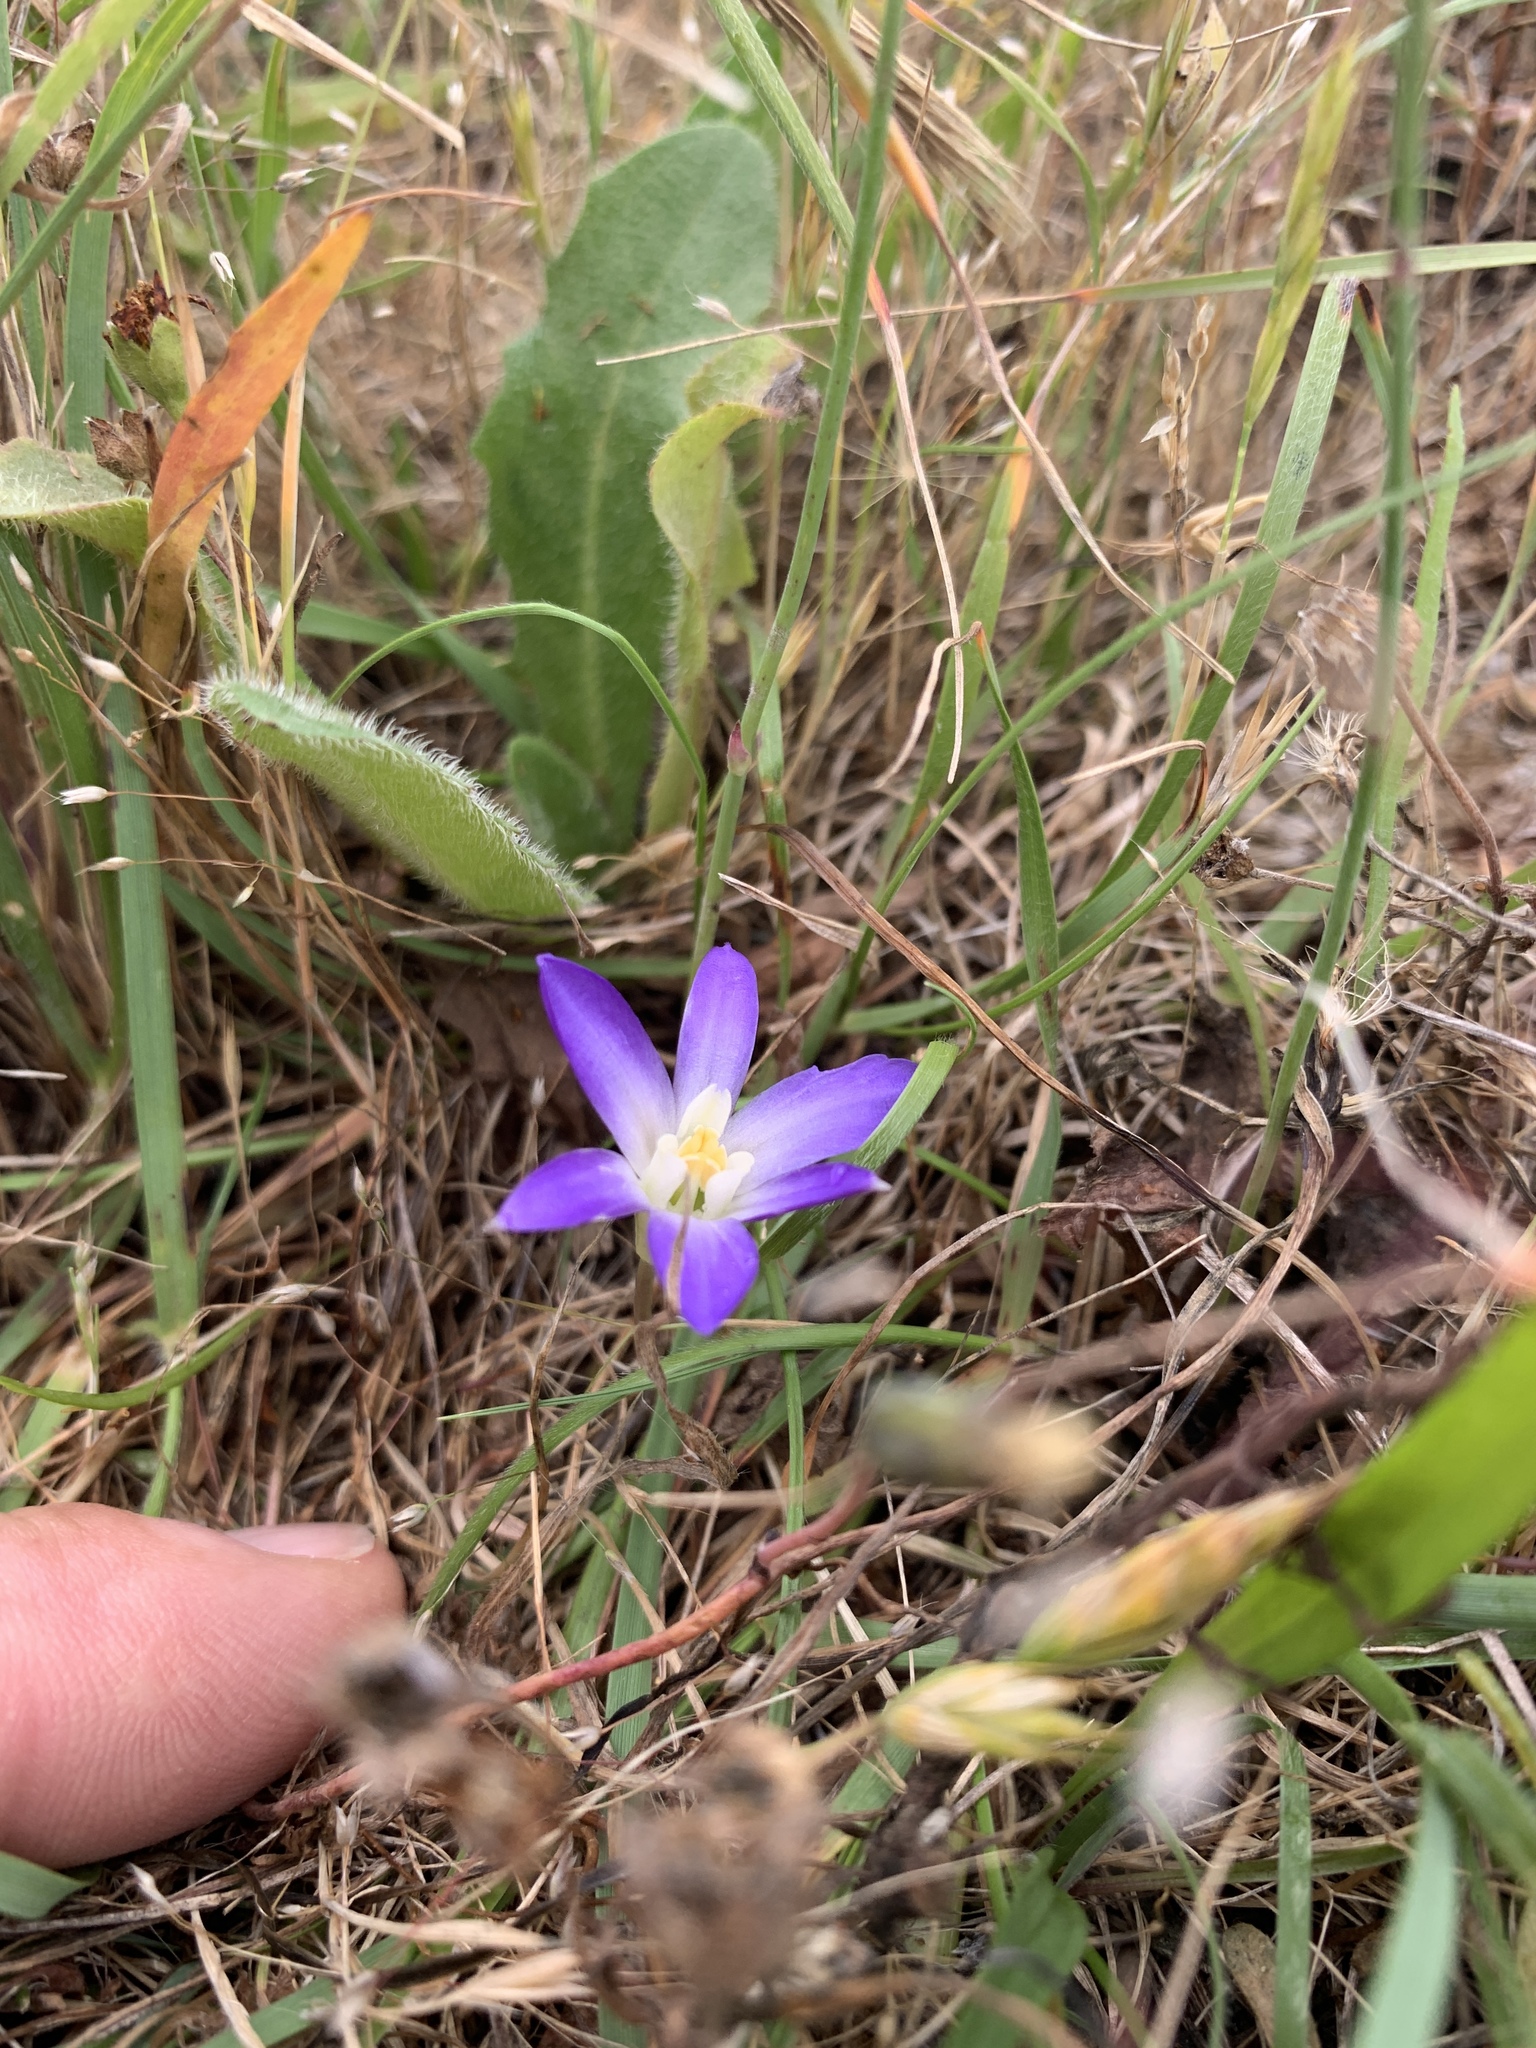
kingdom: Plantae
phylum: Tracheophyta
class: Liliopsida
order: Asparagales
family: Asparagaceae
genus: Brodiaea
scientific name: Brodiaea terrestris
